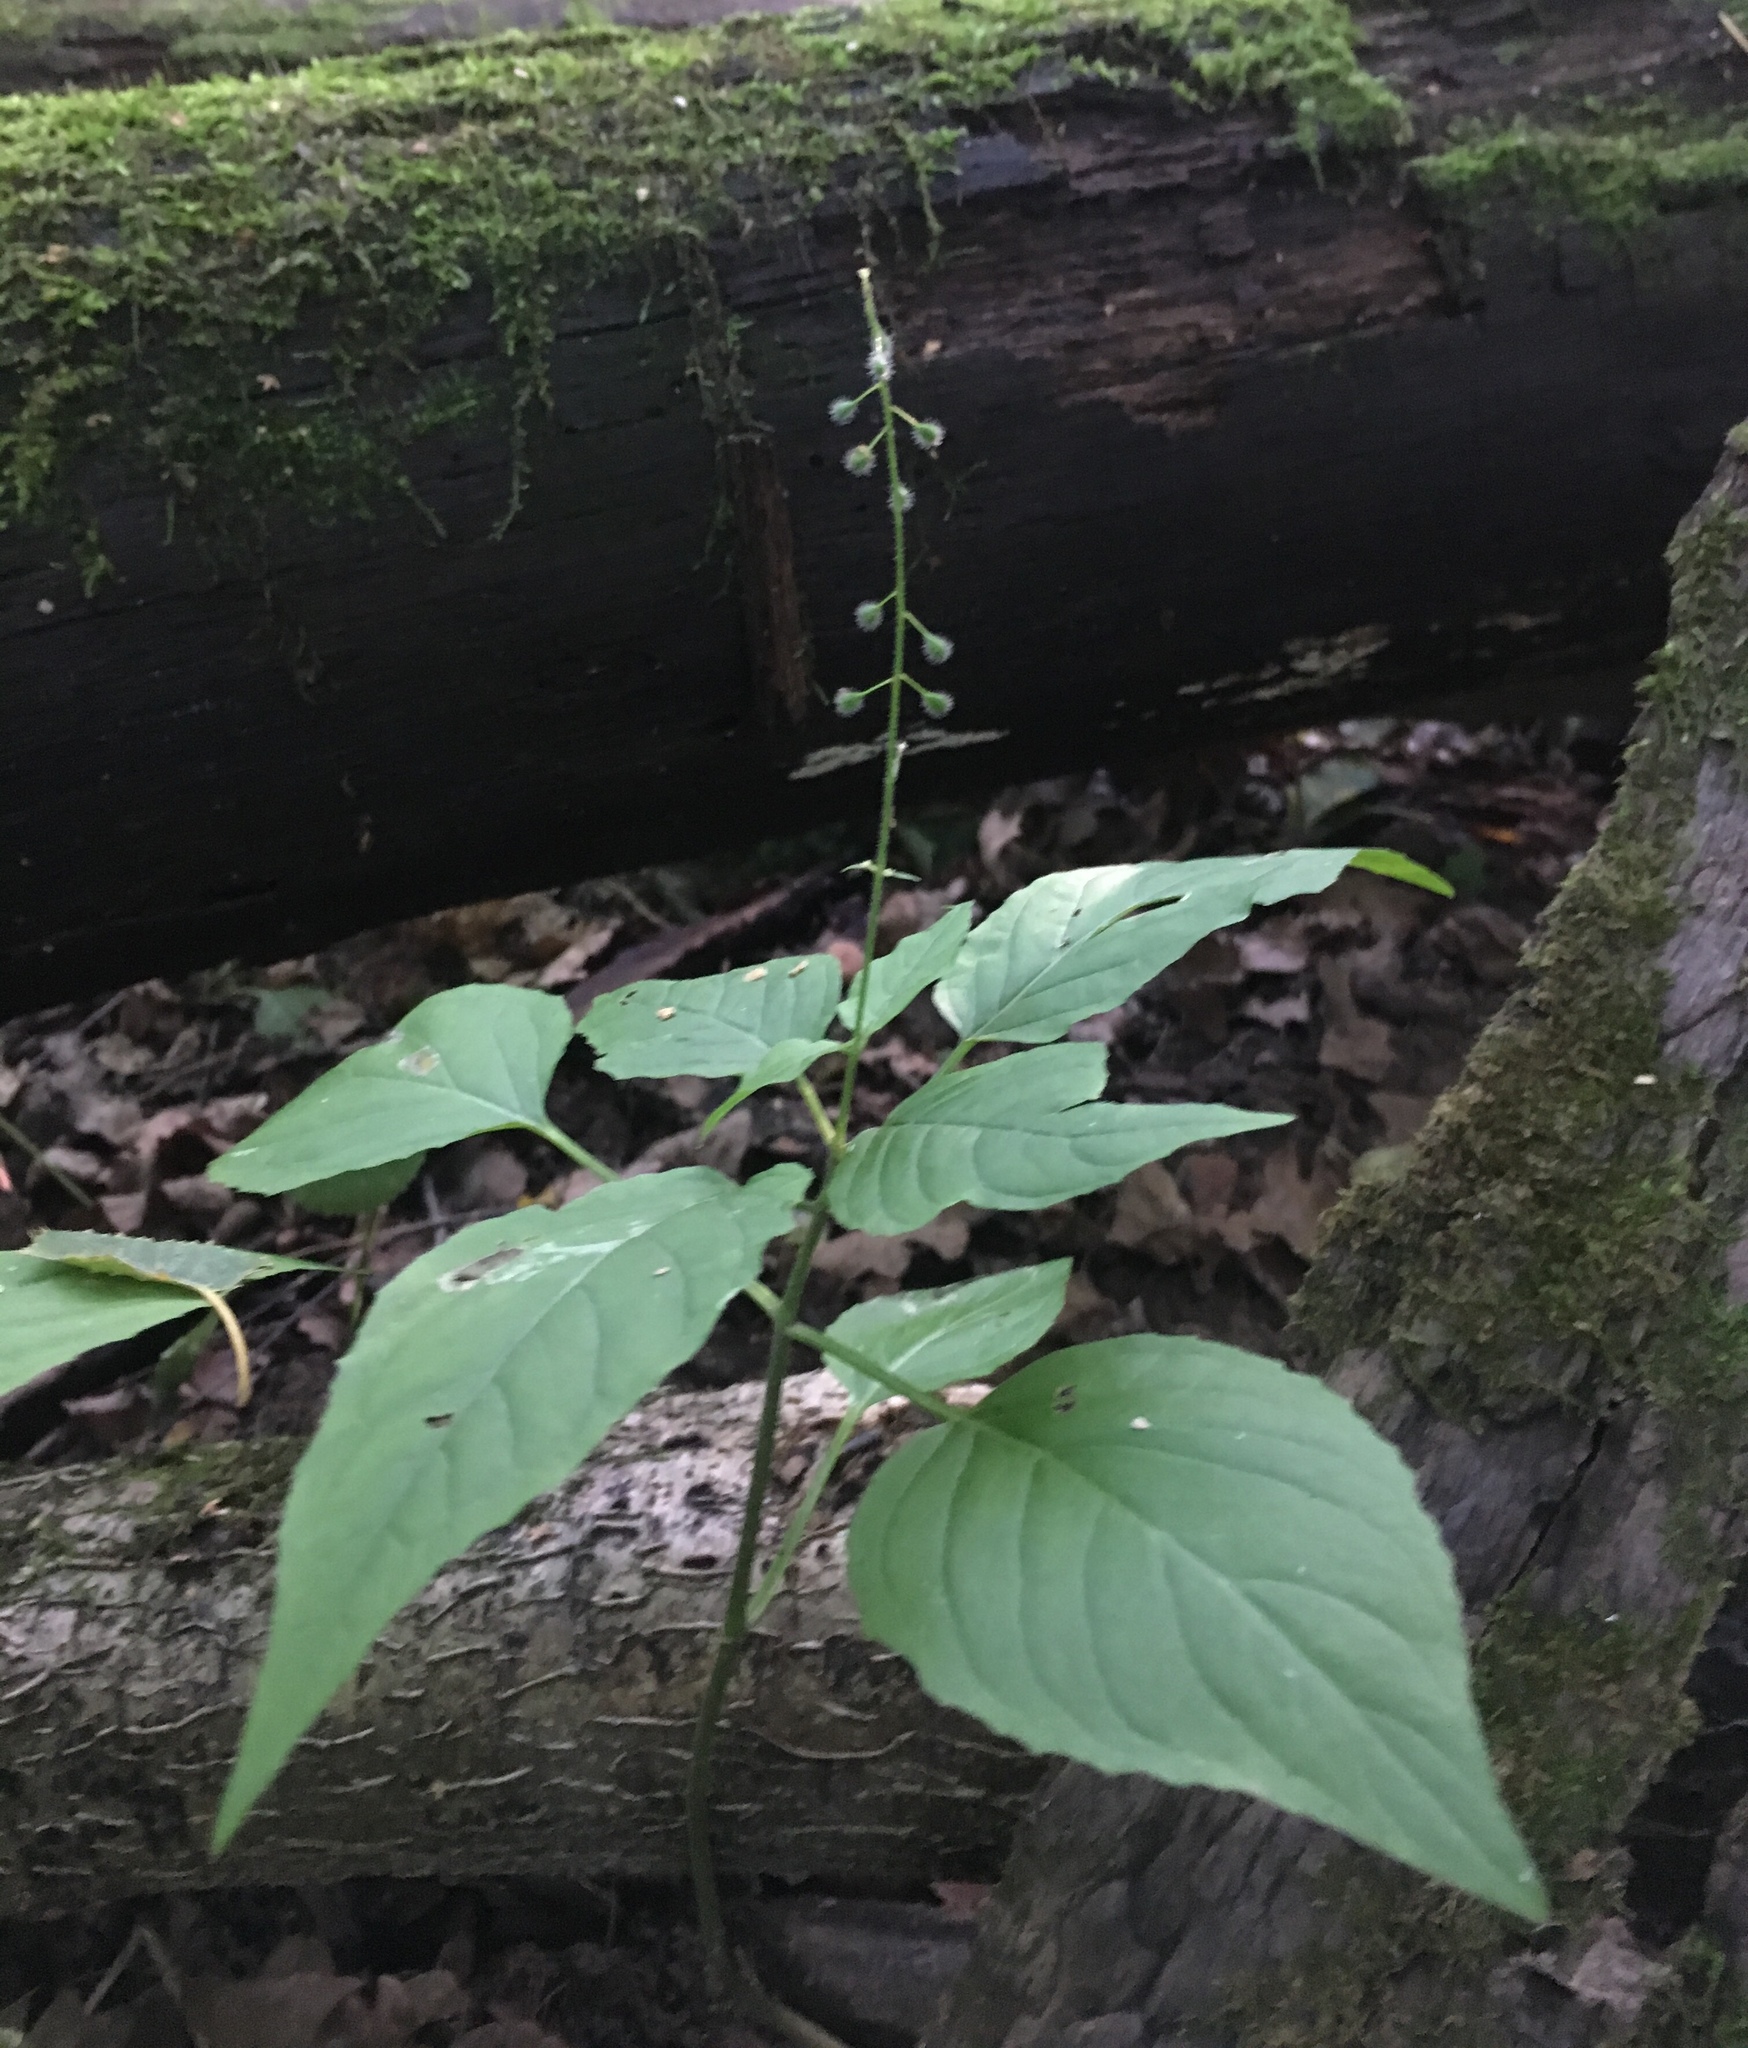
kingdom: Plantae
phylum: Tracheophyta
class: Magnoliopsida
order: Myrtales
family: Onagraceae
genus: Circaea
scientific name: Circaea lutetiana
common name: Enchanter's-nightshade
